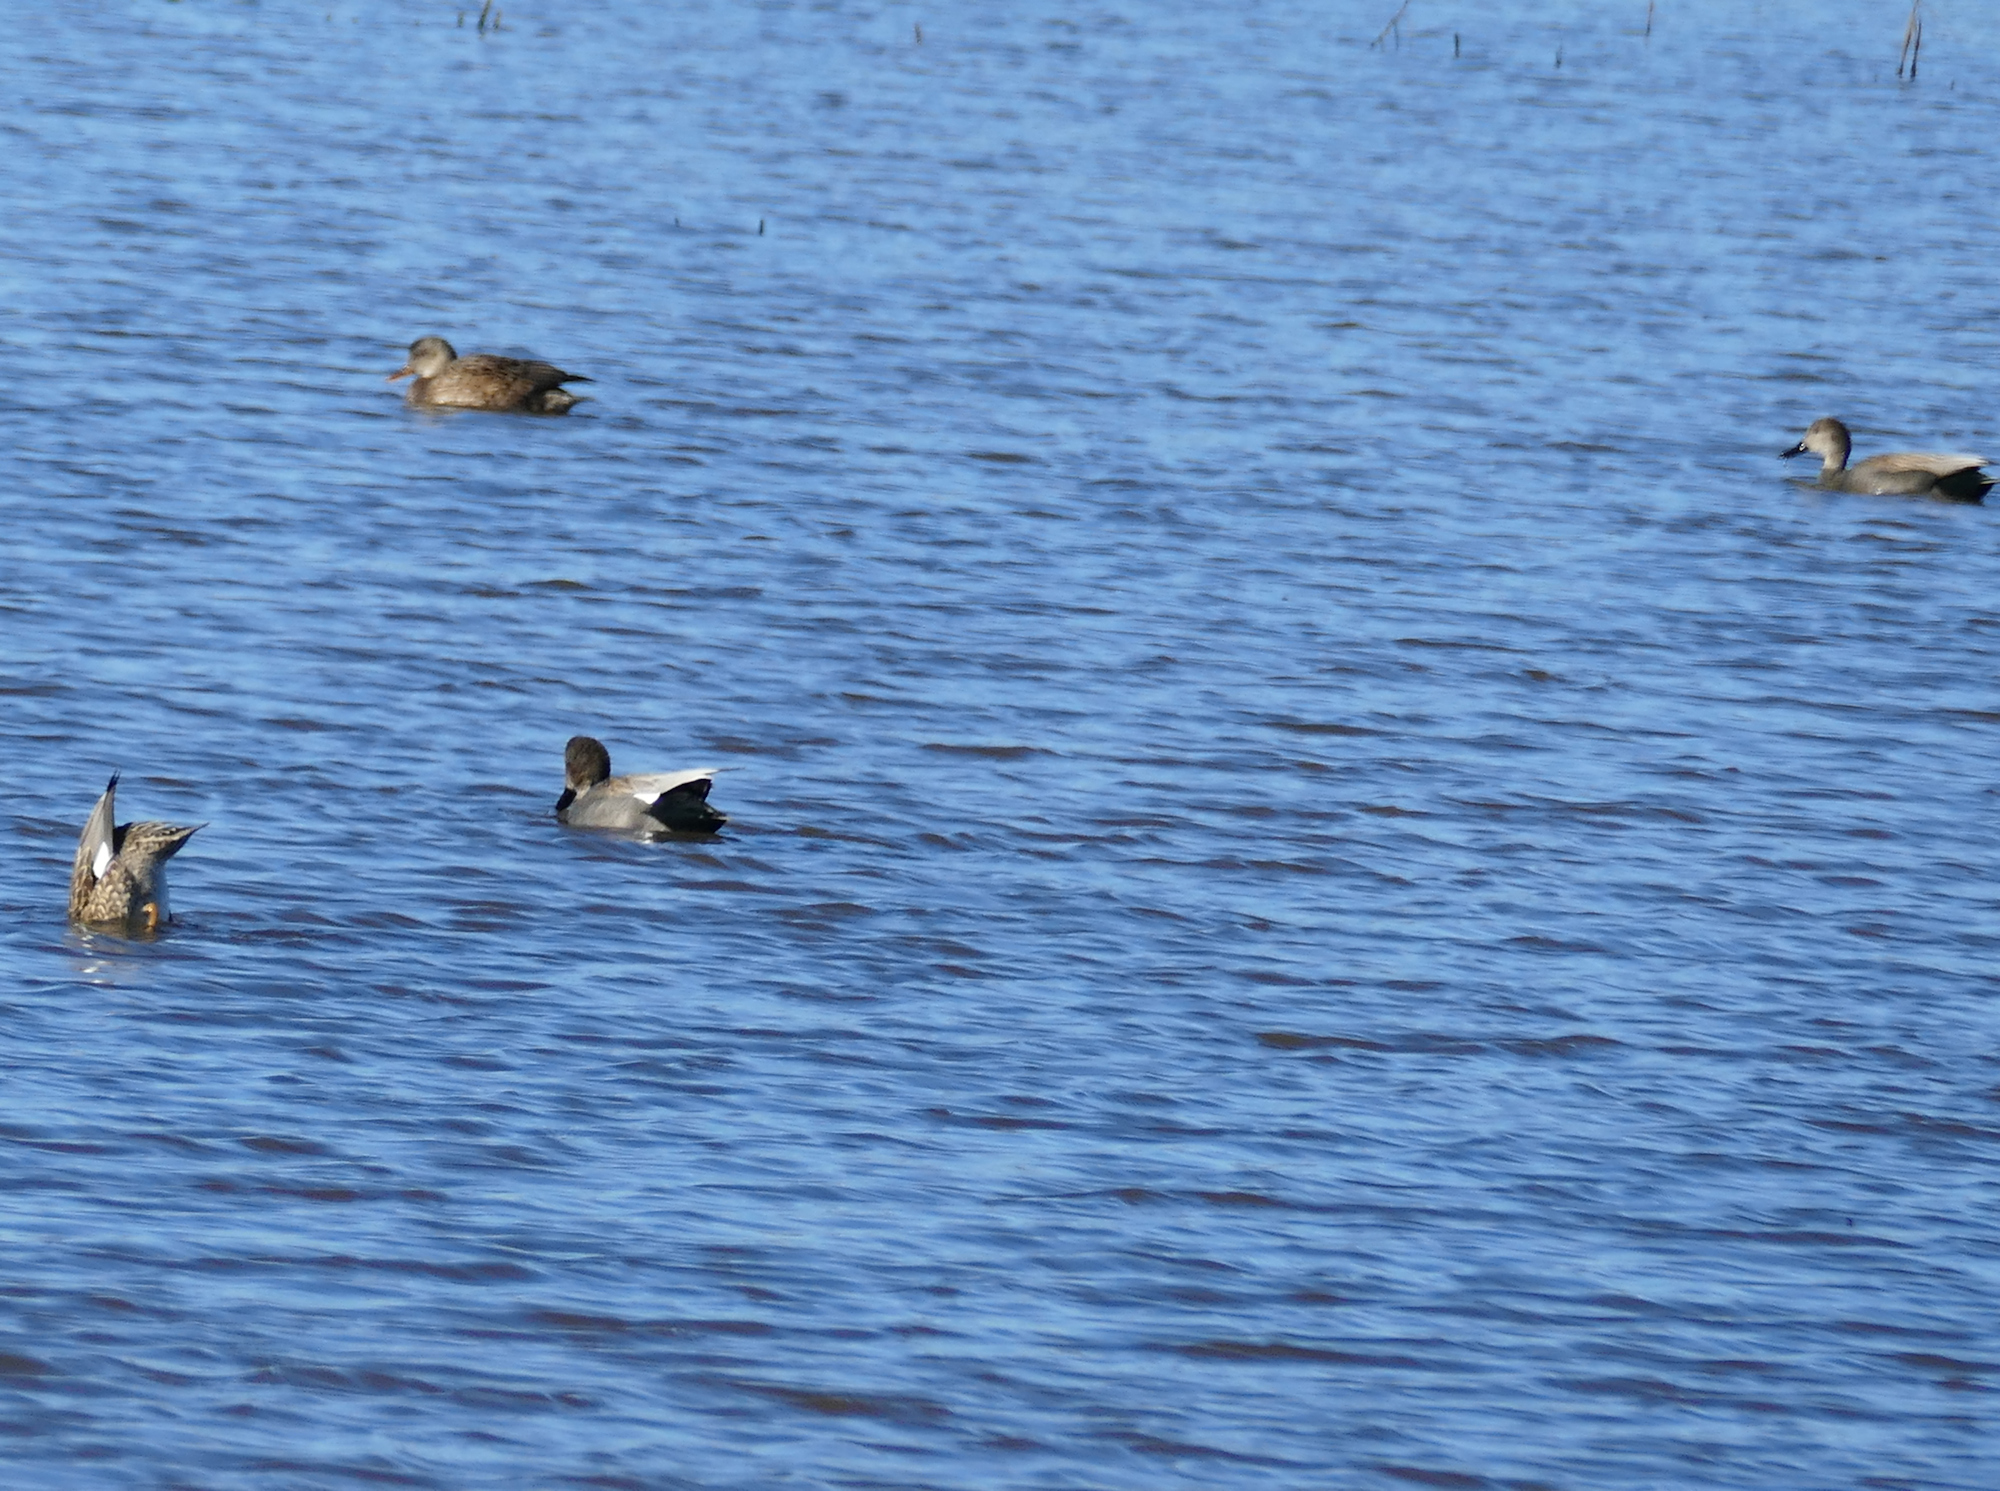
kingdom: Animalia
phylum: Chordata
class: Aves
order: Anseriformes
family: Anatidae
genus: Mareca
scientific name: Mareca strepera
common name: Gadwall
